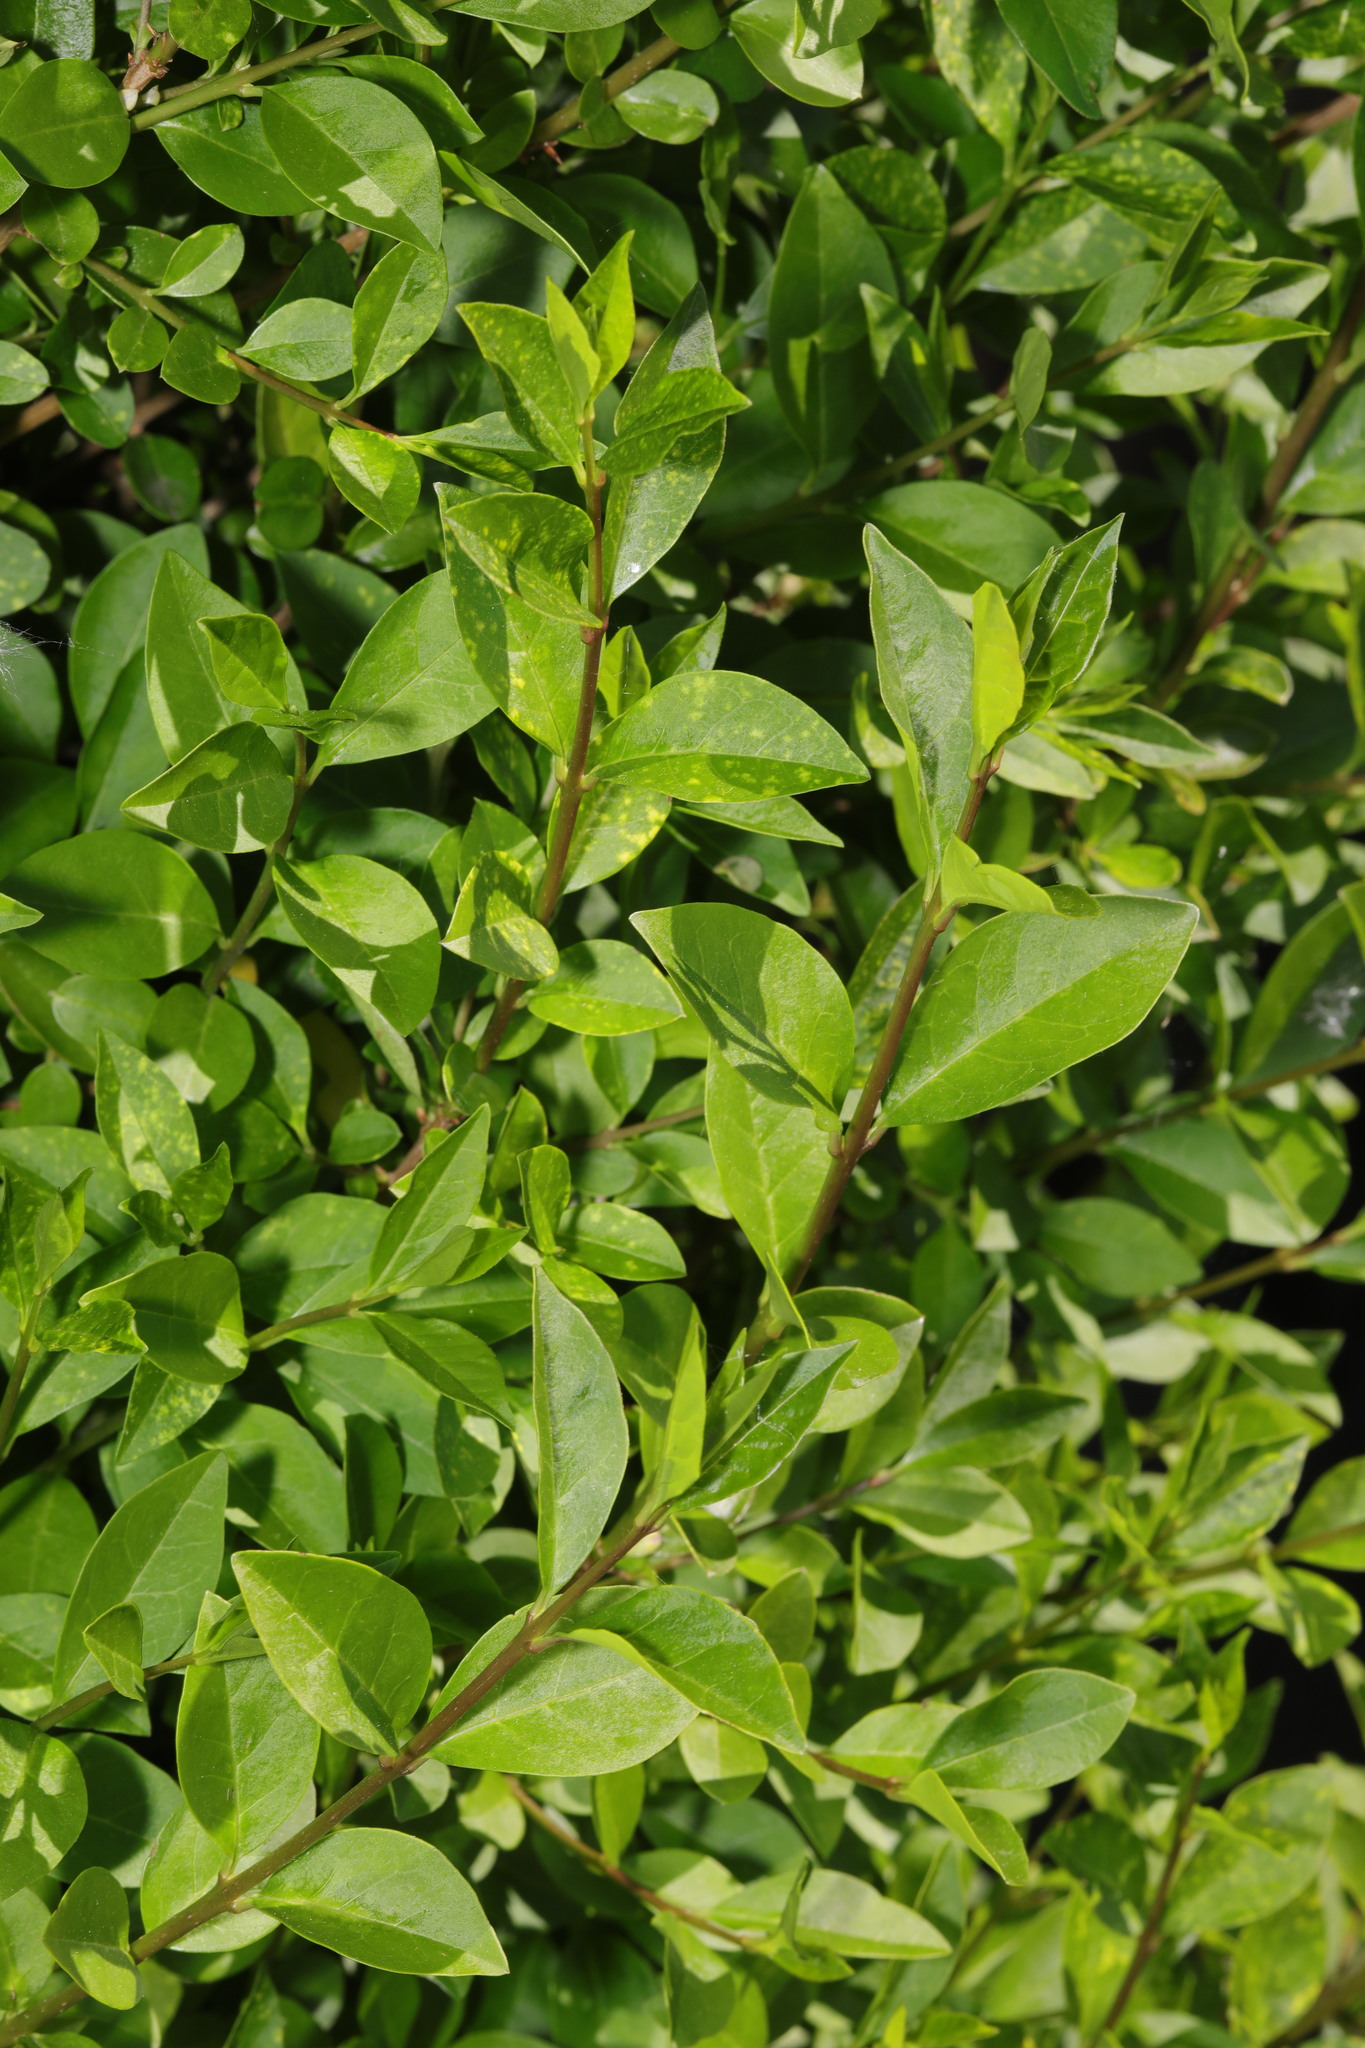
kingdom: Plantae
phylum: Tracheophyta
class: Magnoliopsida
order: Lamiales
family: Oleaceae
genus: Ligustrum
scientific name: Ligustrum ovalifolium
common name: California privet
